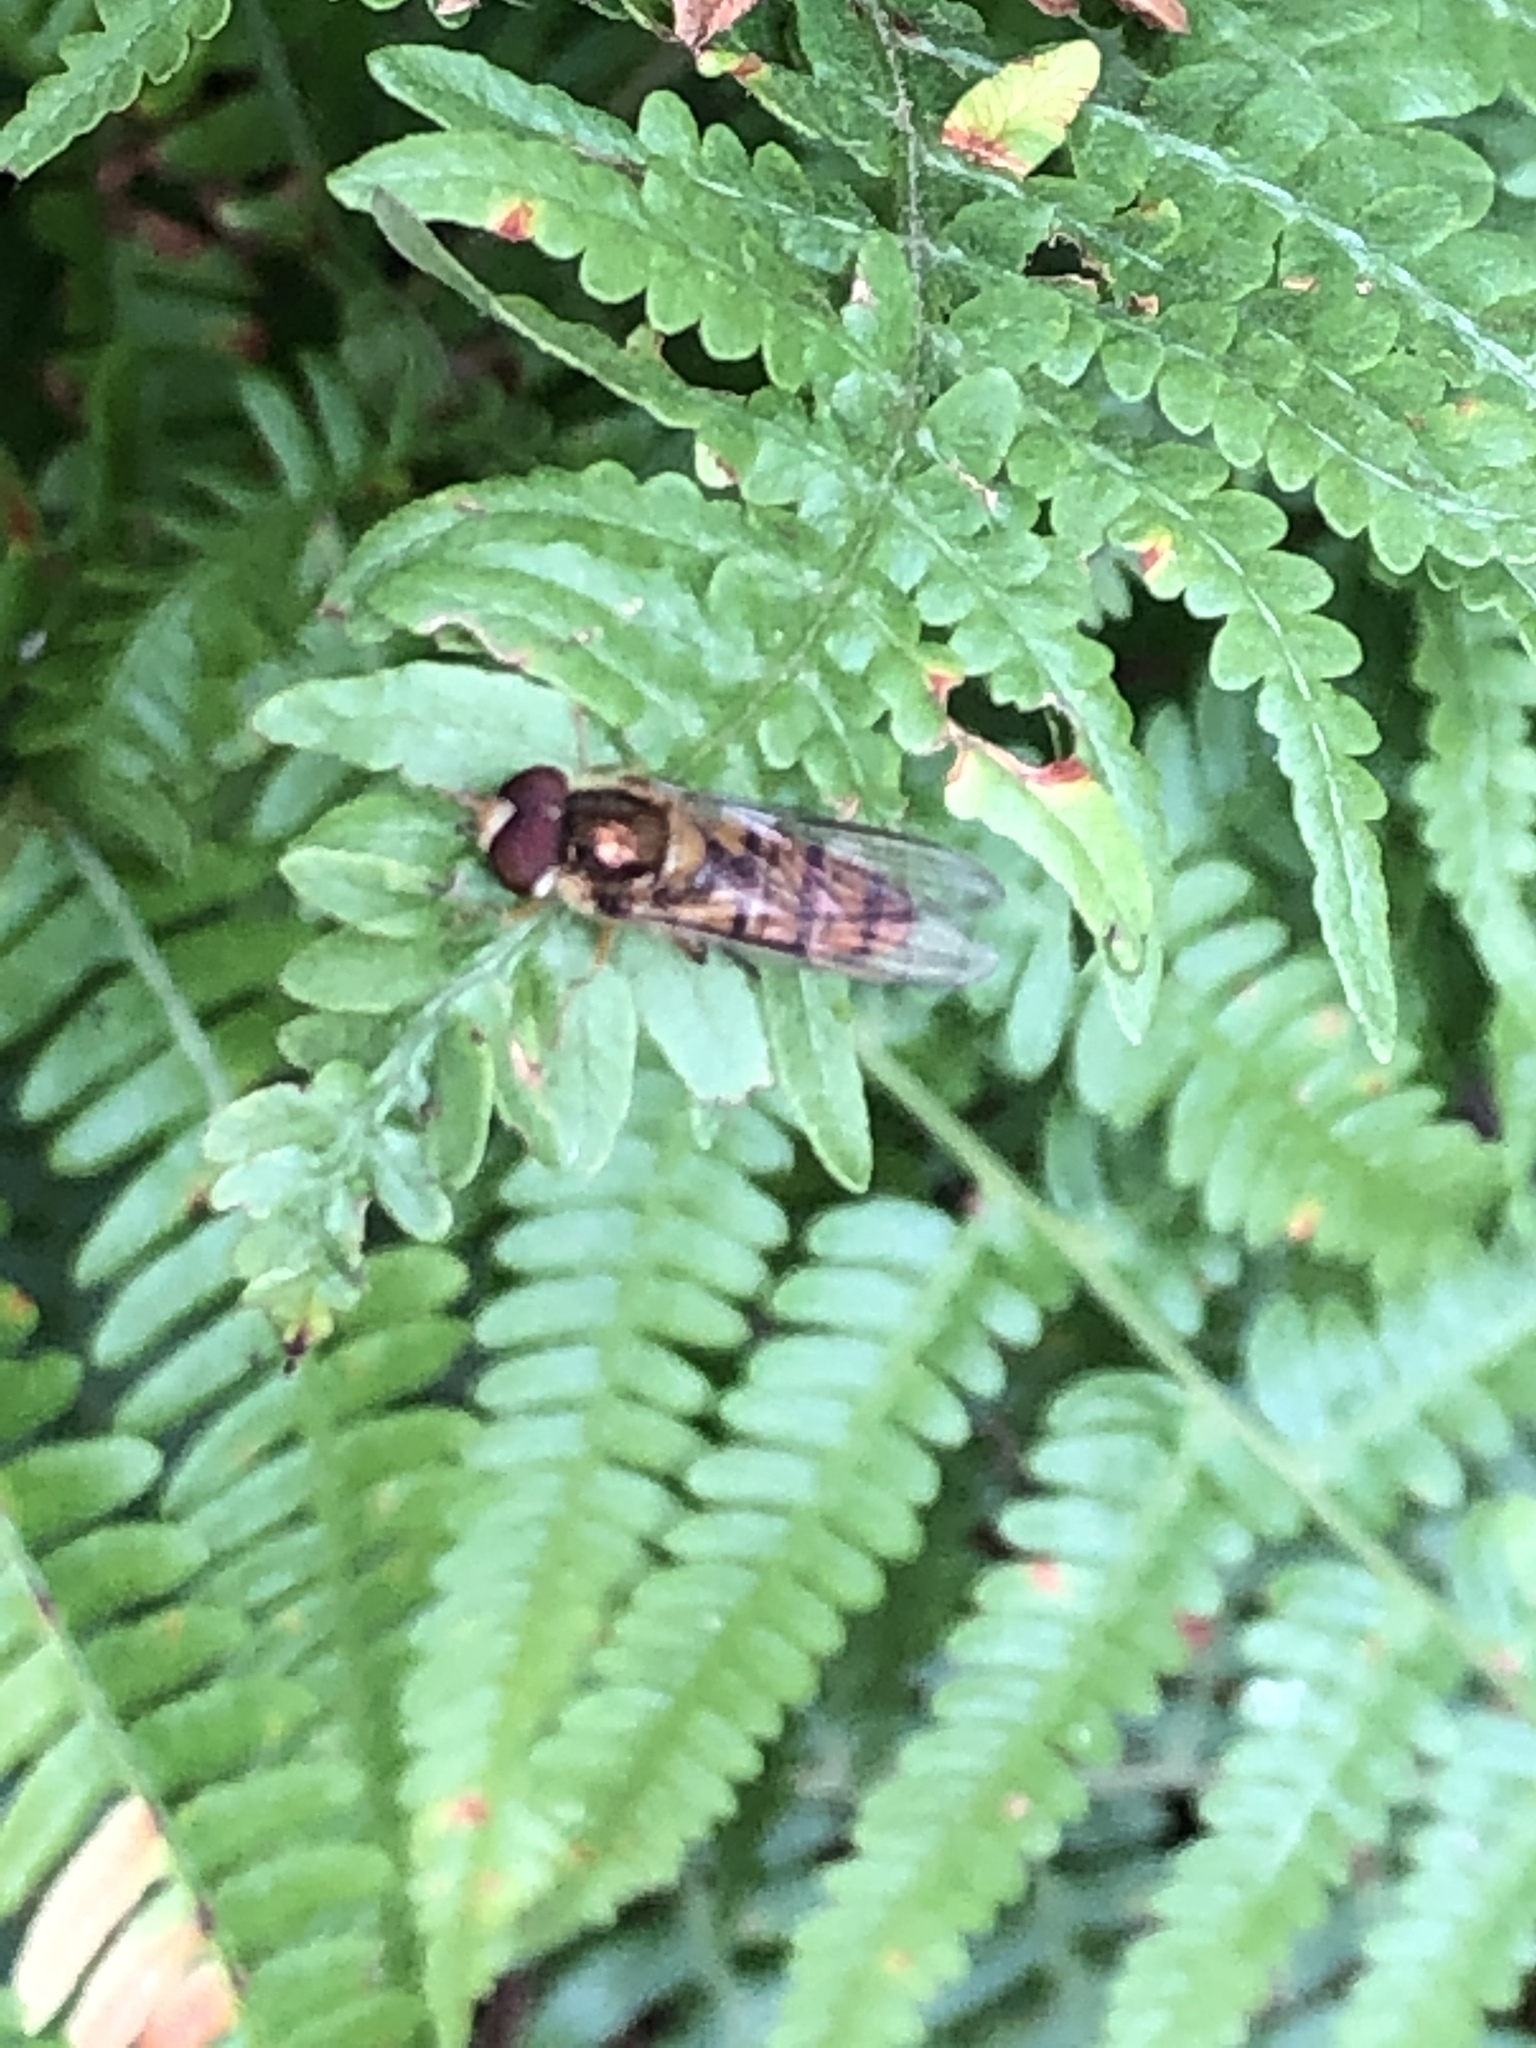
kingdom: Animalia
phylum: Arthropoda
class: Insecta
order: Diptera
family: Syrphidae
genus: Episyrphus
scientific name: Episyrphus balteatus
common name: Marmalade hoverfly
